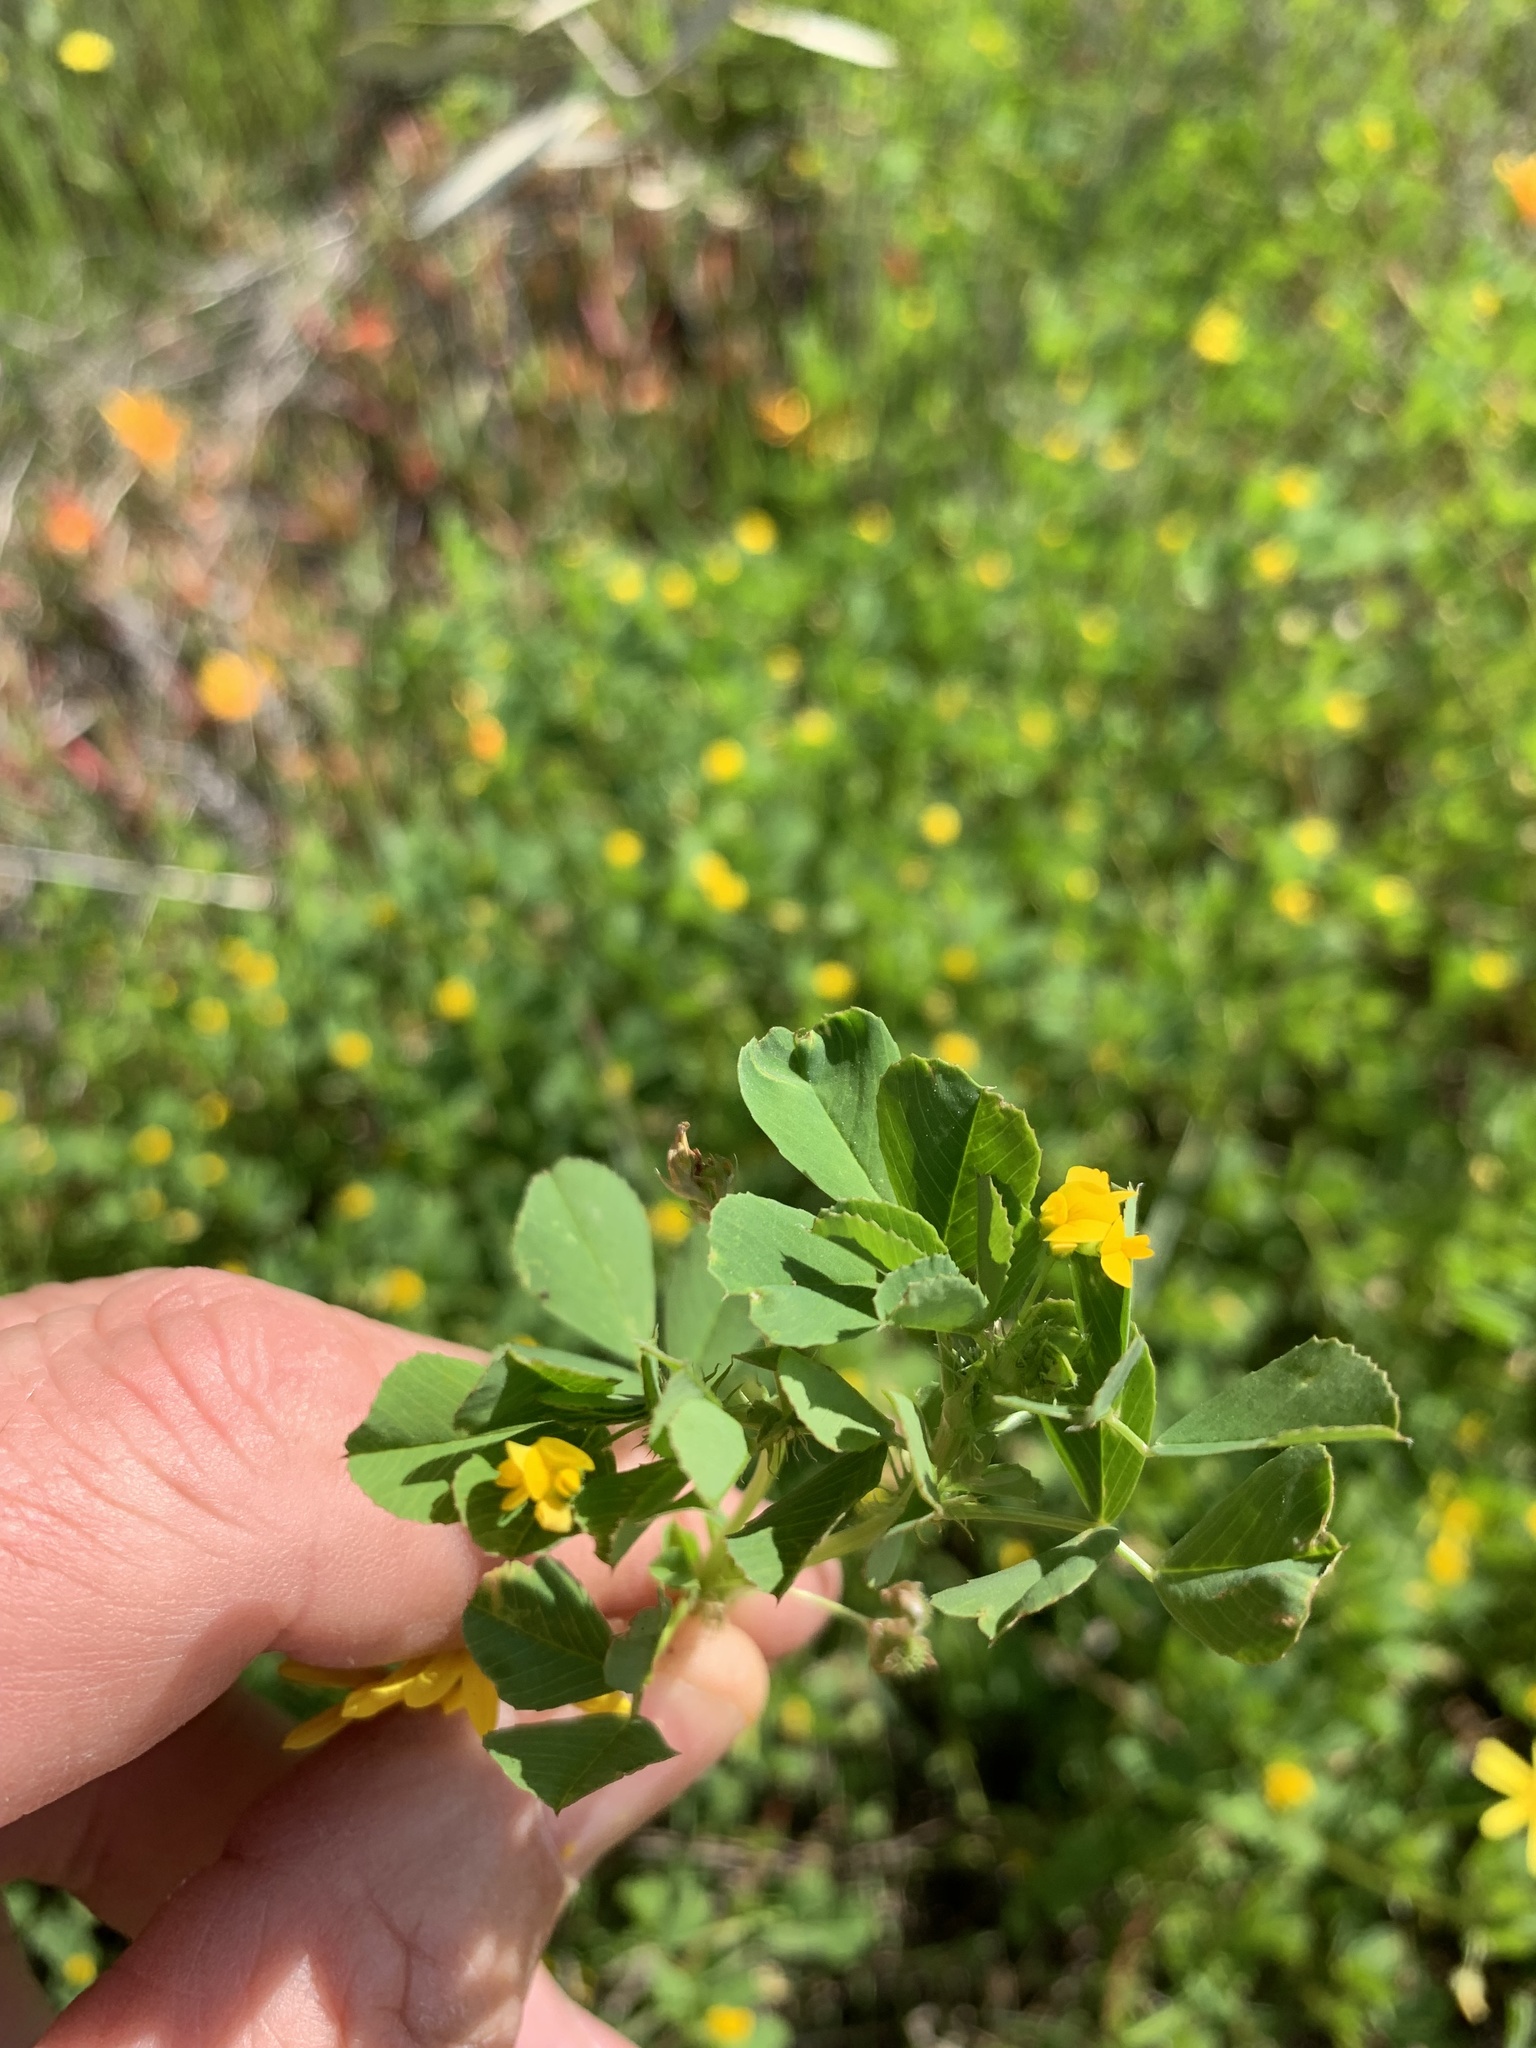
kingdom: Plantae
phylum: Tracheophyta
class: Magnoliopsida
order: Fabales
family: Fabaceae
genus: Medicago
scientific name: Medicago polymorpha
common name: Burclover
